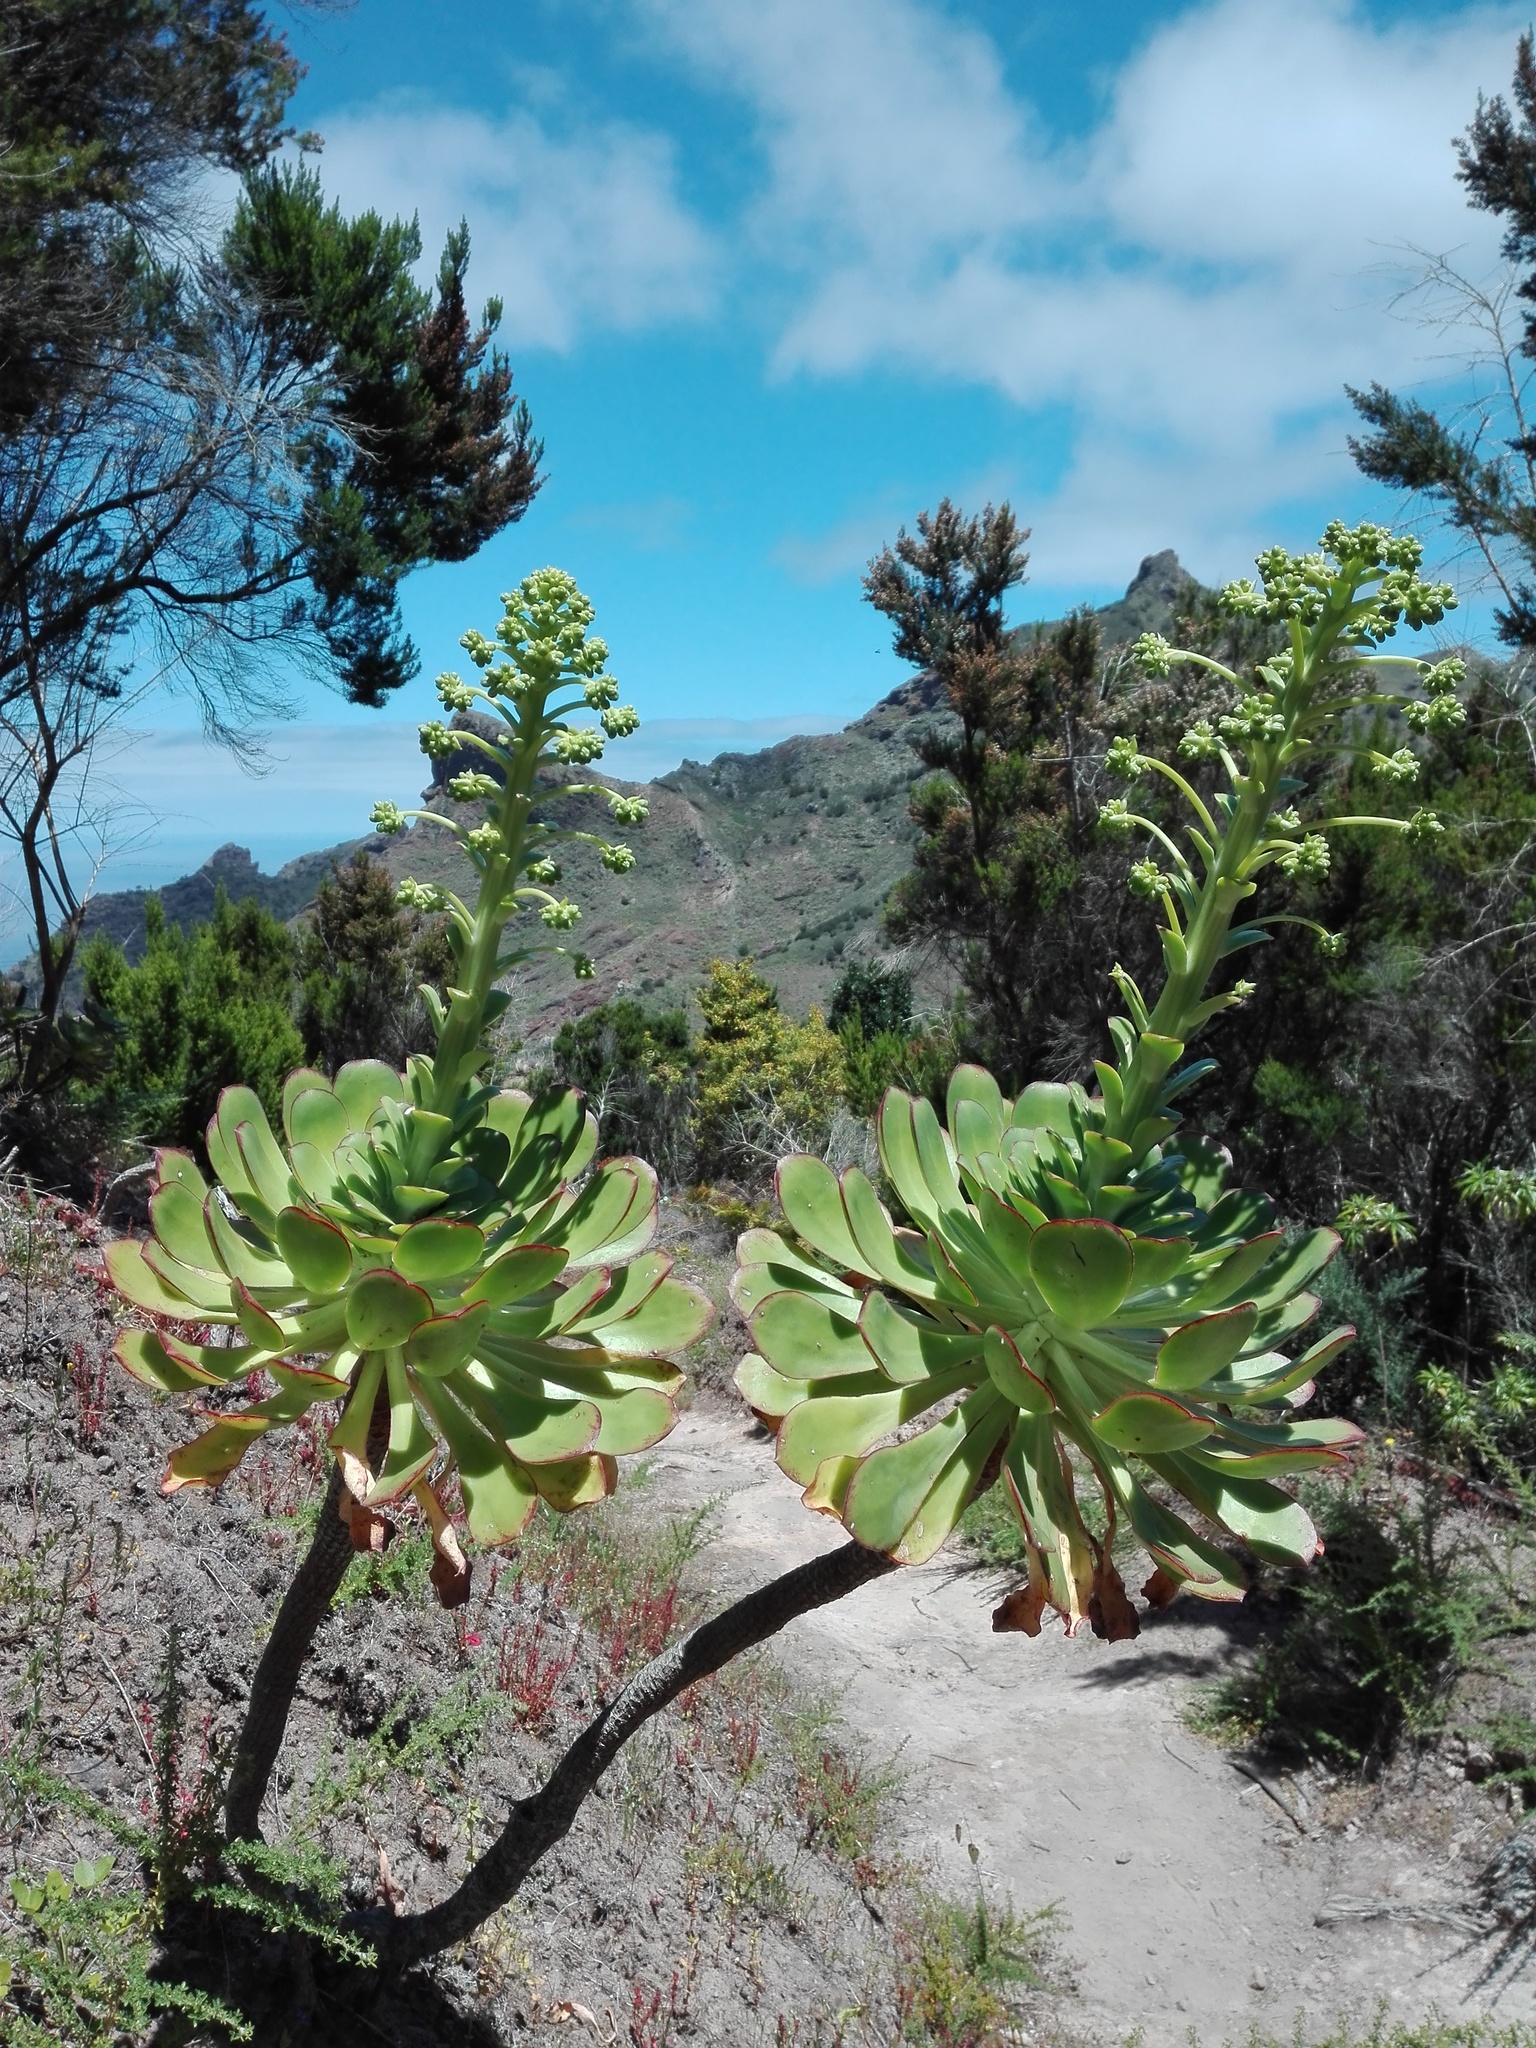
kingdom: Plantae
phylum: Tracheophyta
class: Magnoliopsida
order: Saxifragales
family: Crassulaceae
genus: Aeonium
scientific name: Aeonium urbicum
